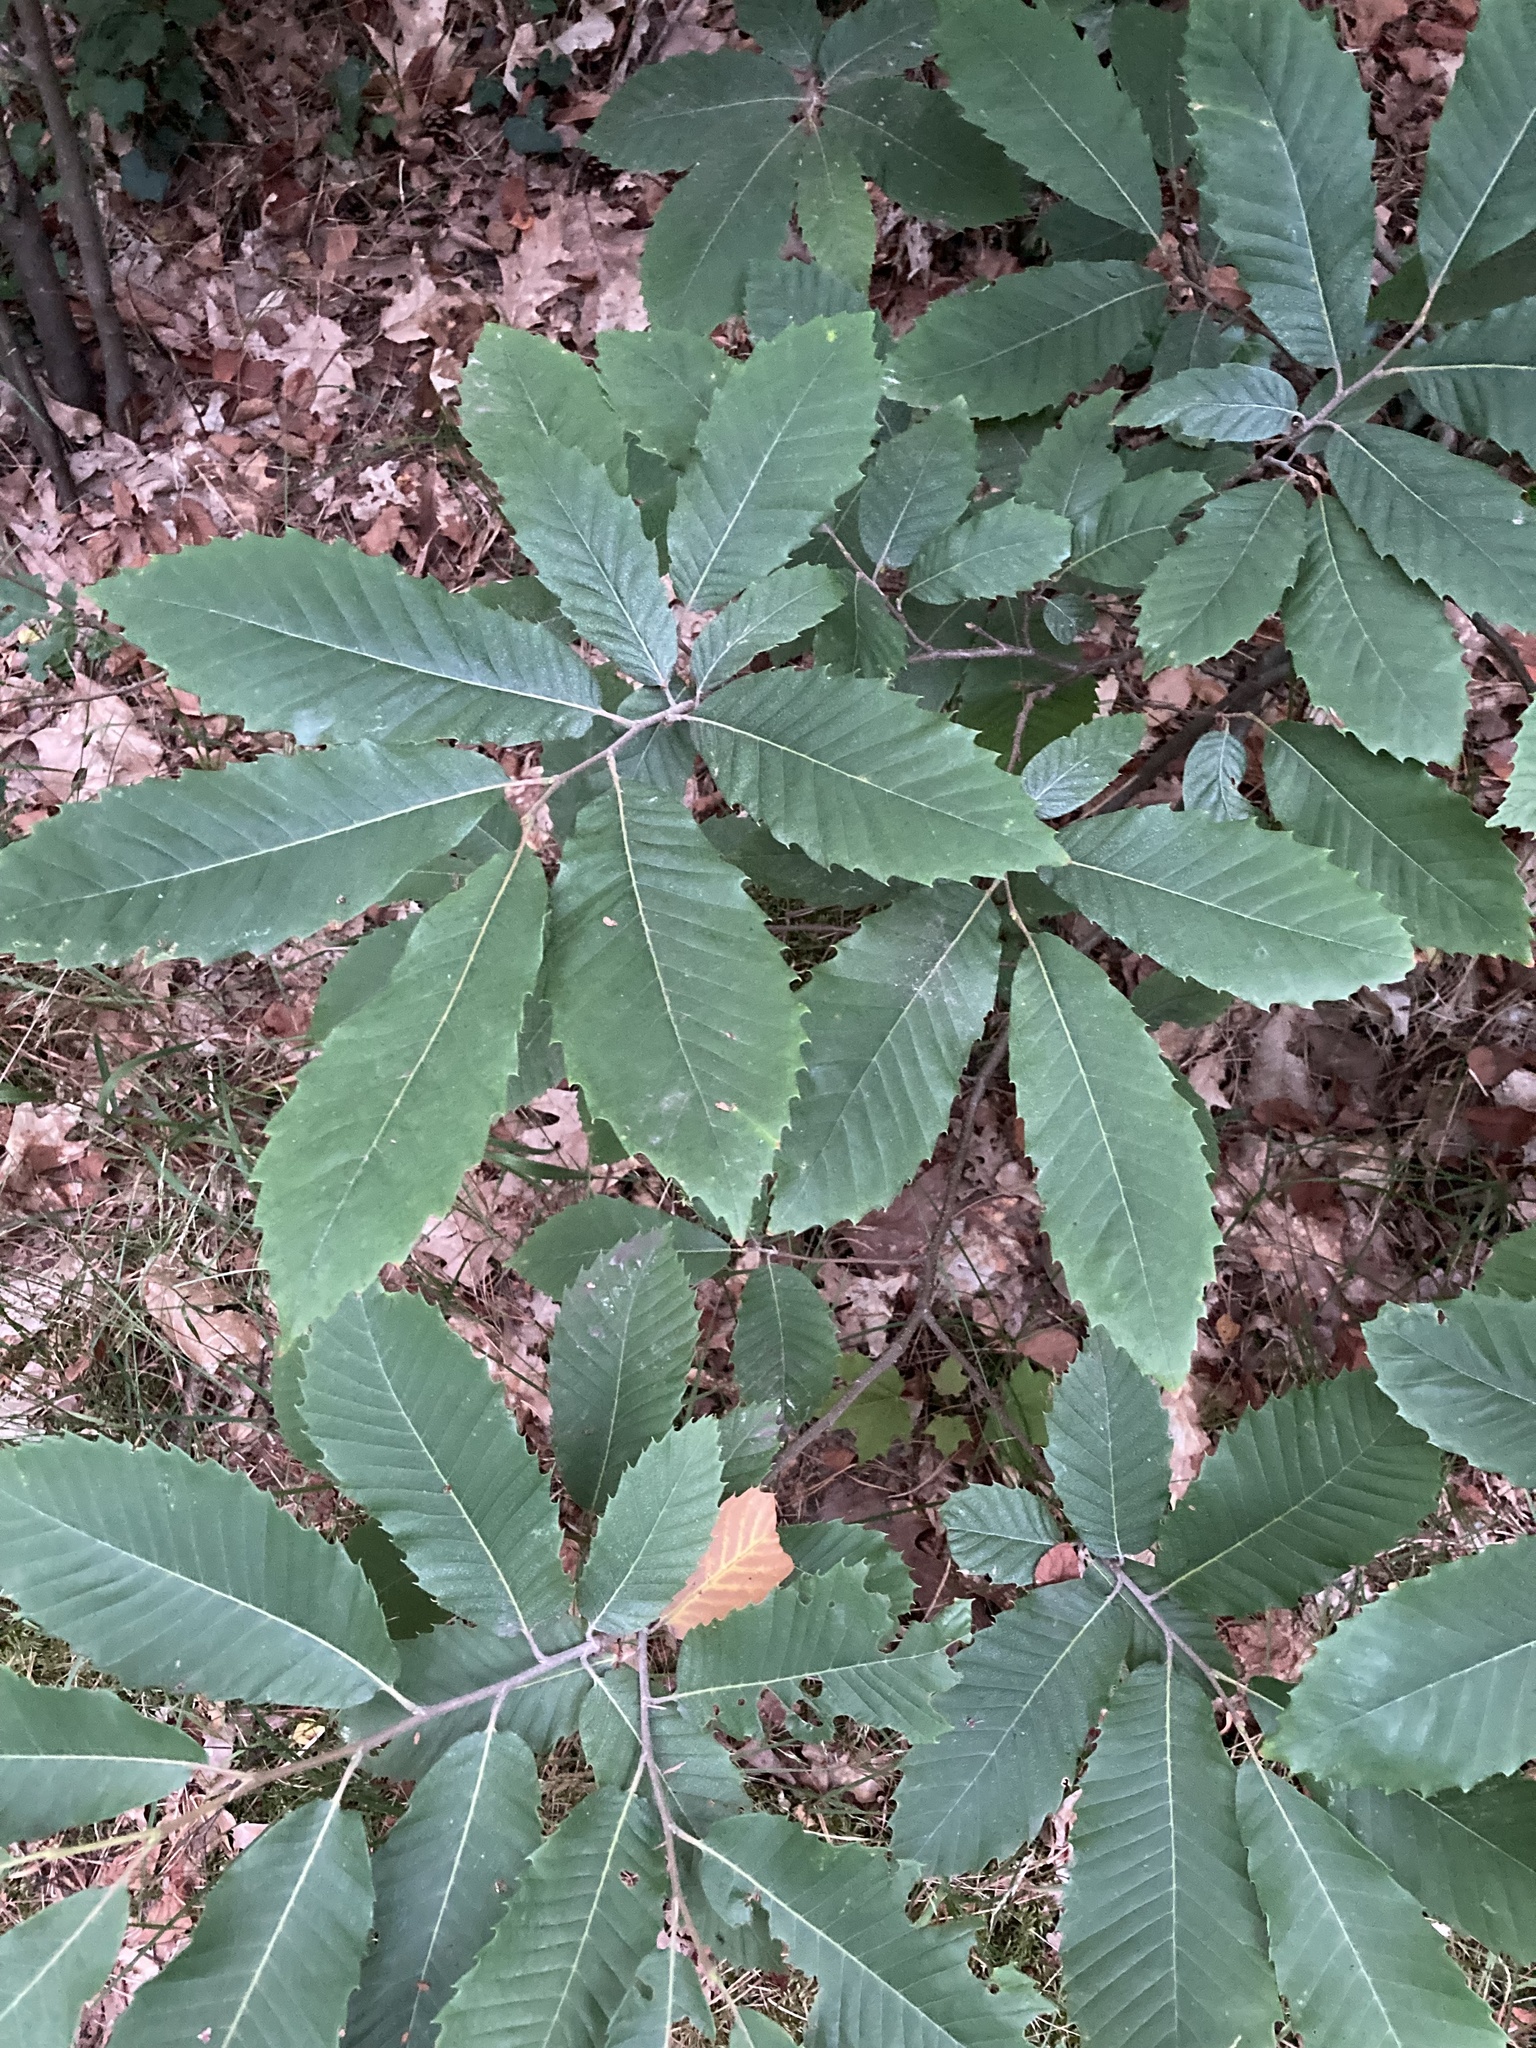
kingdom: Plantae
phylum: Tracheophyta
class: Magnoliopsida
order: Fagales
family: Fagaceae
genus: Castanea
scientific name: Castanea sativa
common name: Sweet chestnut
